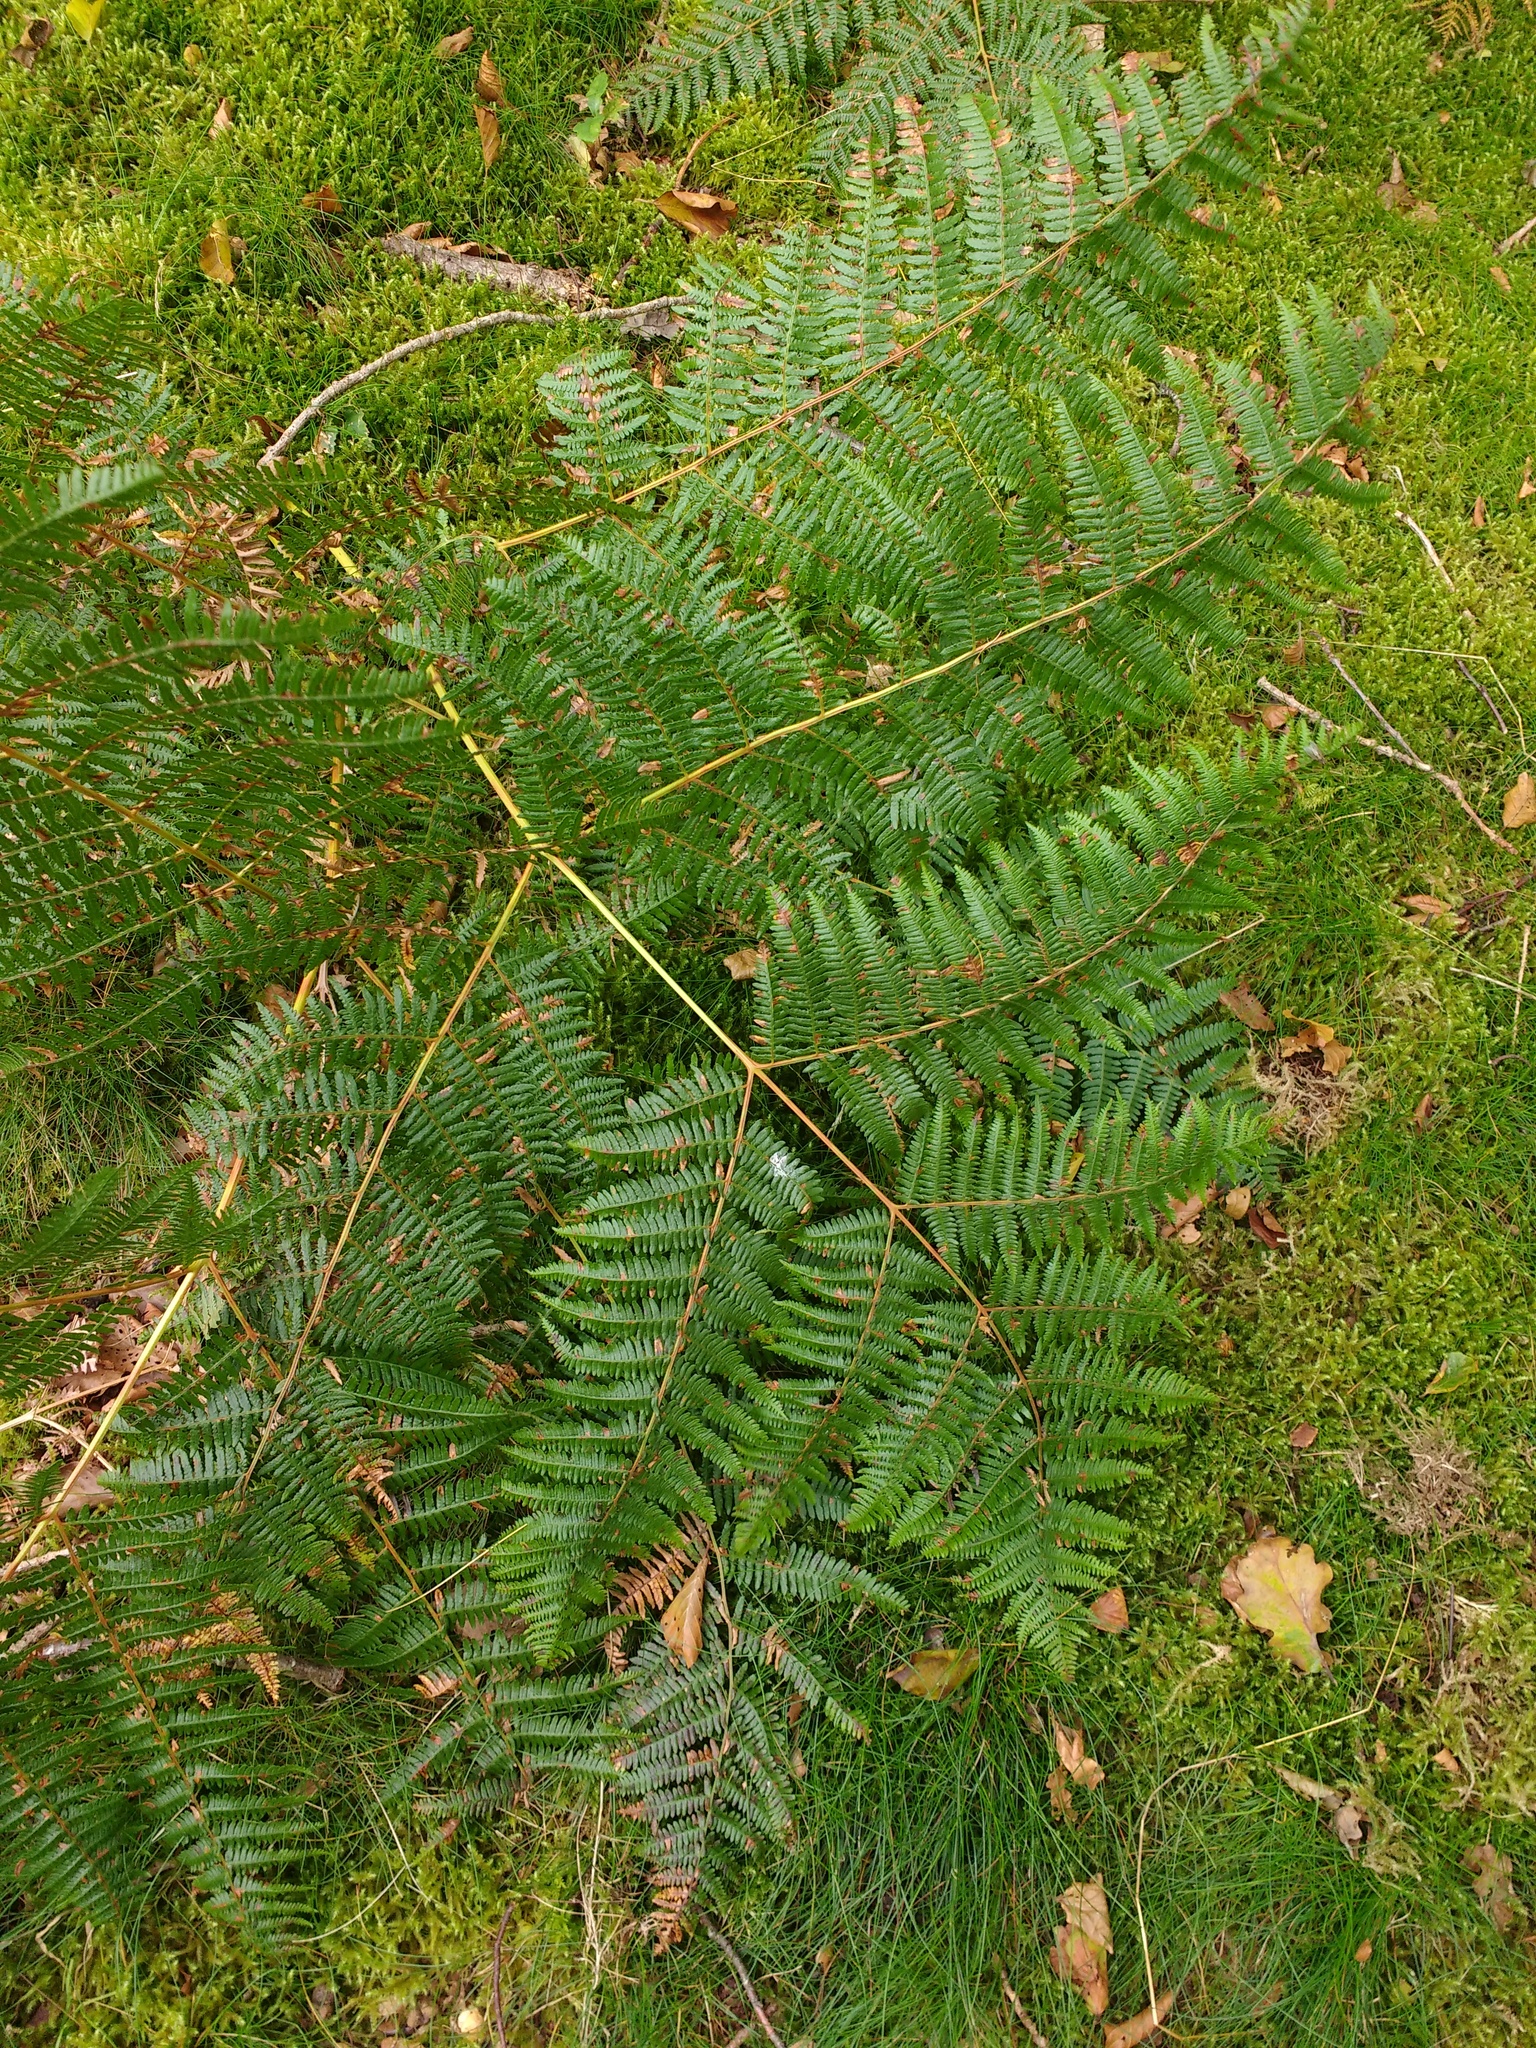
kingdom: Plantae
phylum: Tracheophyta
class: Polypodiopsida
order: Polypodiales
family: Dennstaedtiaceae
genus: Pteridium
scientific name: Pteridium aquilinum
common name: Bracken
